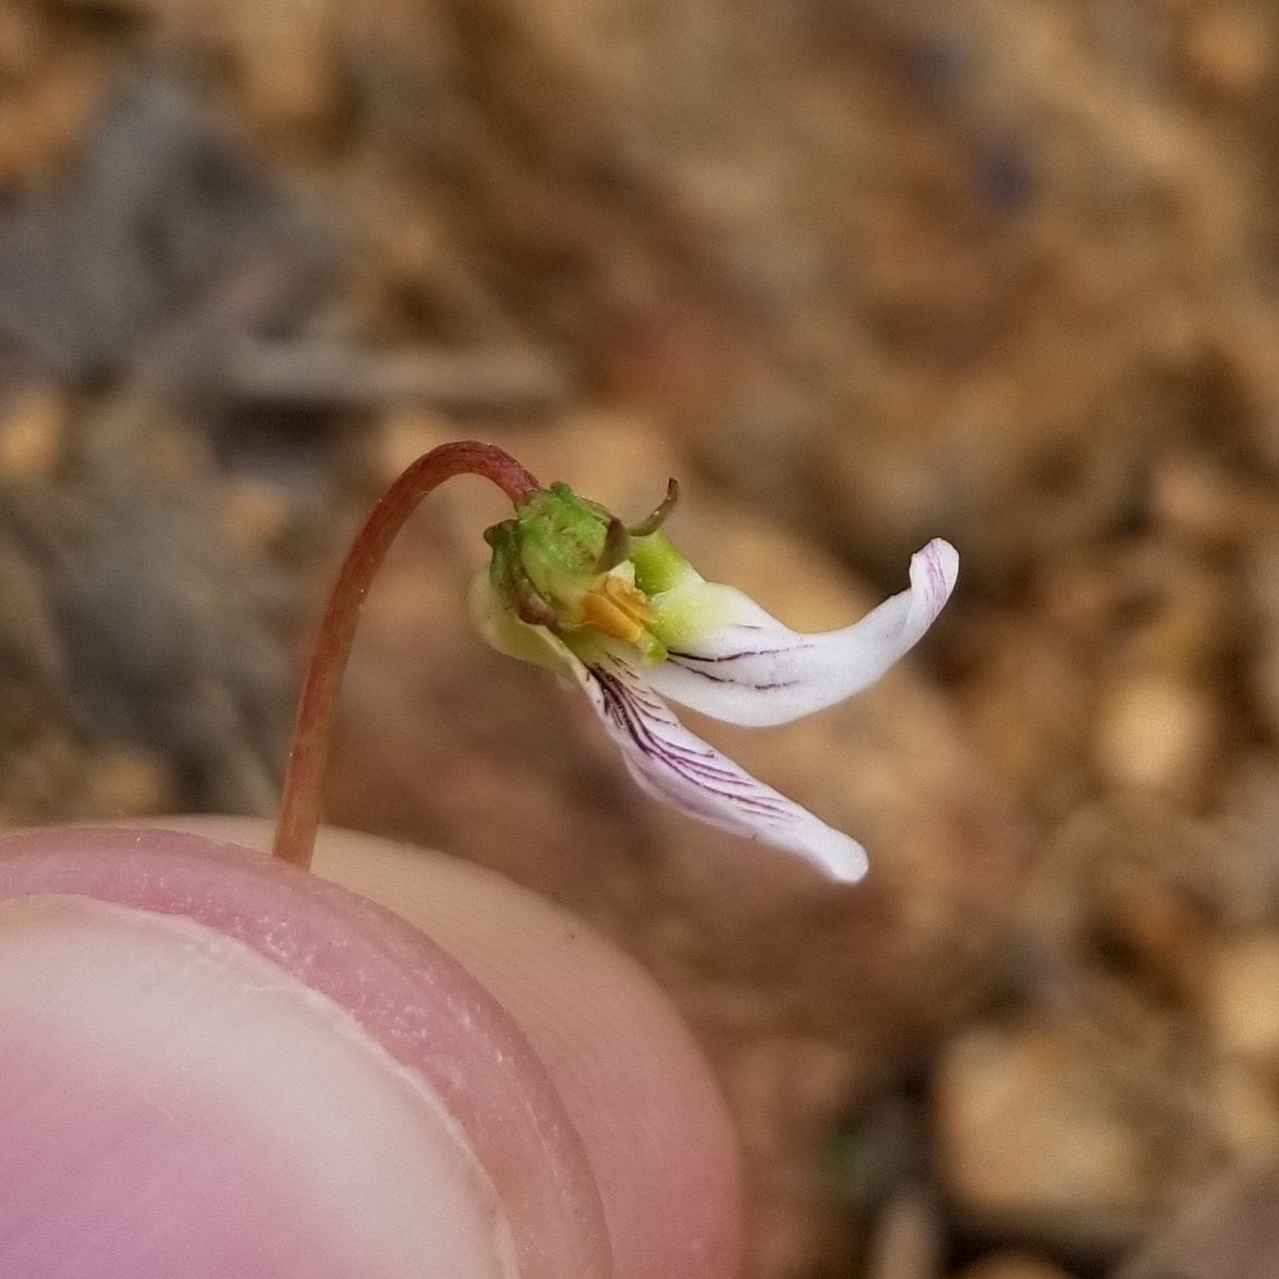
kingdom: Plantae
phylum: Tracheophyta
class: Magnoliopsida
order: Malpighiales
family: Violaceae
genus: Viola
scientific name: Viola lanceolata
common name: Bog white violet
